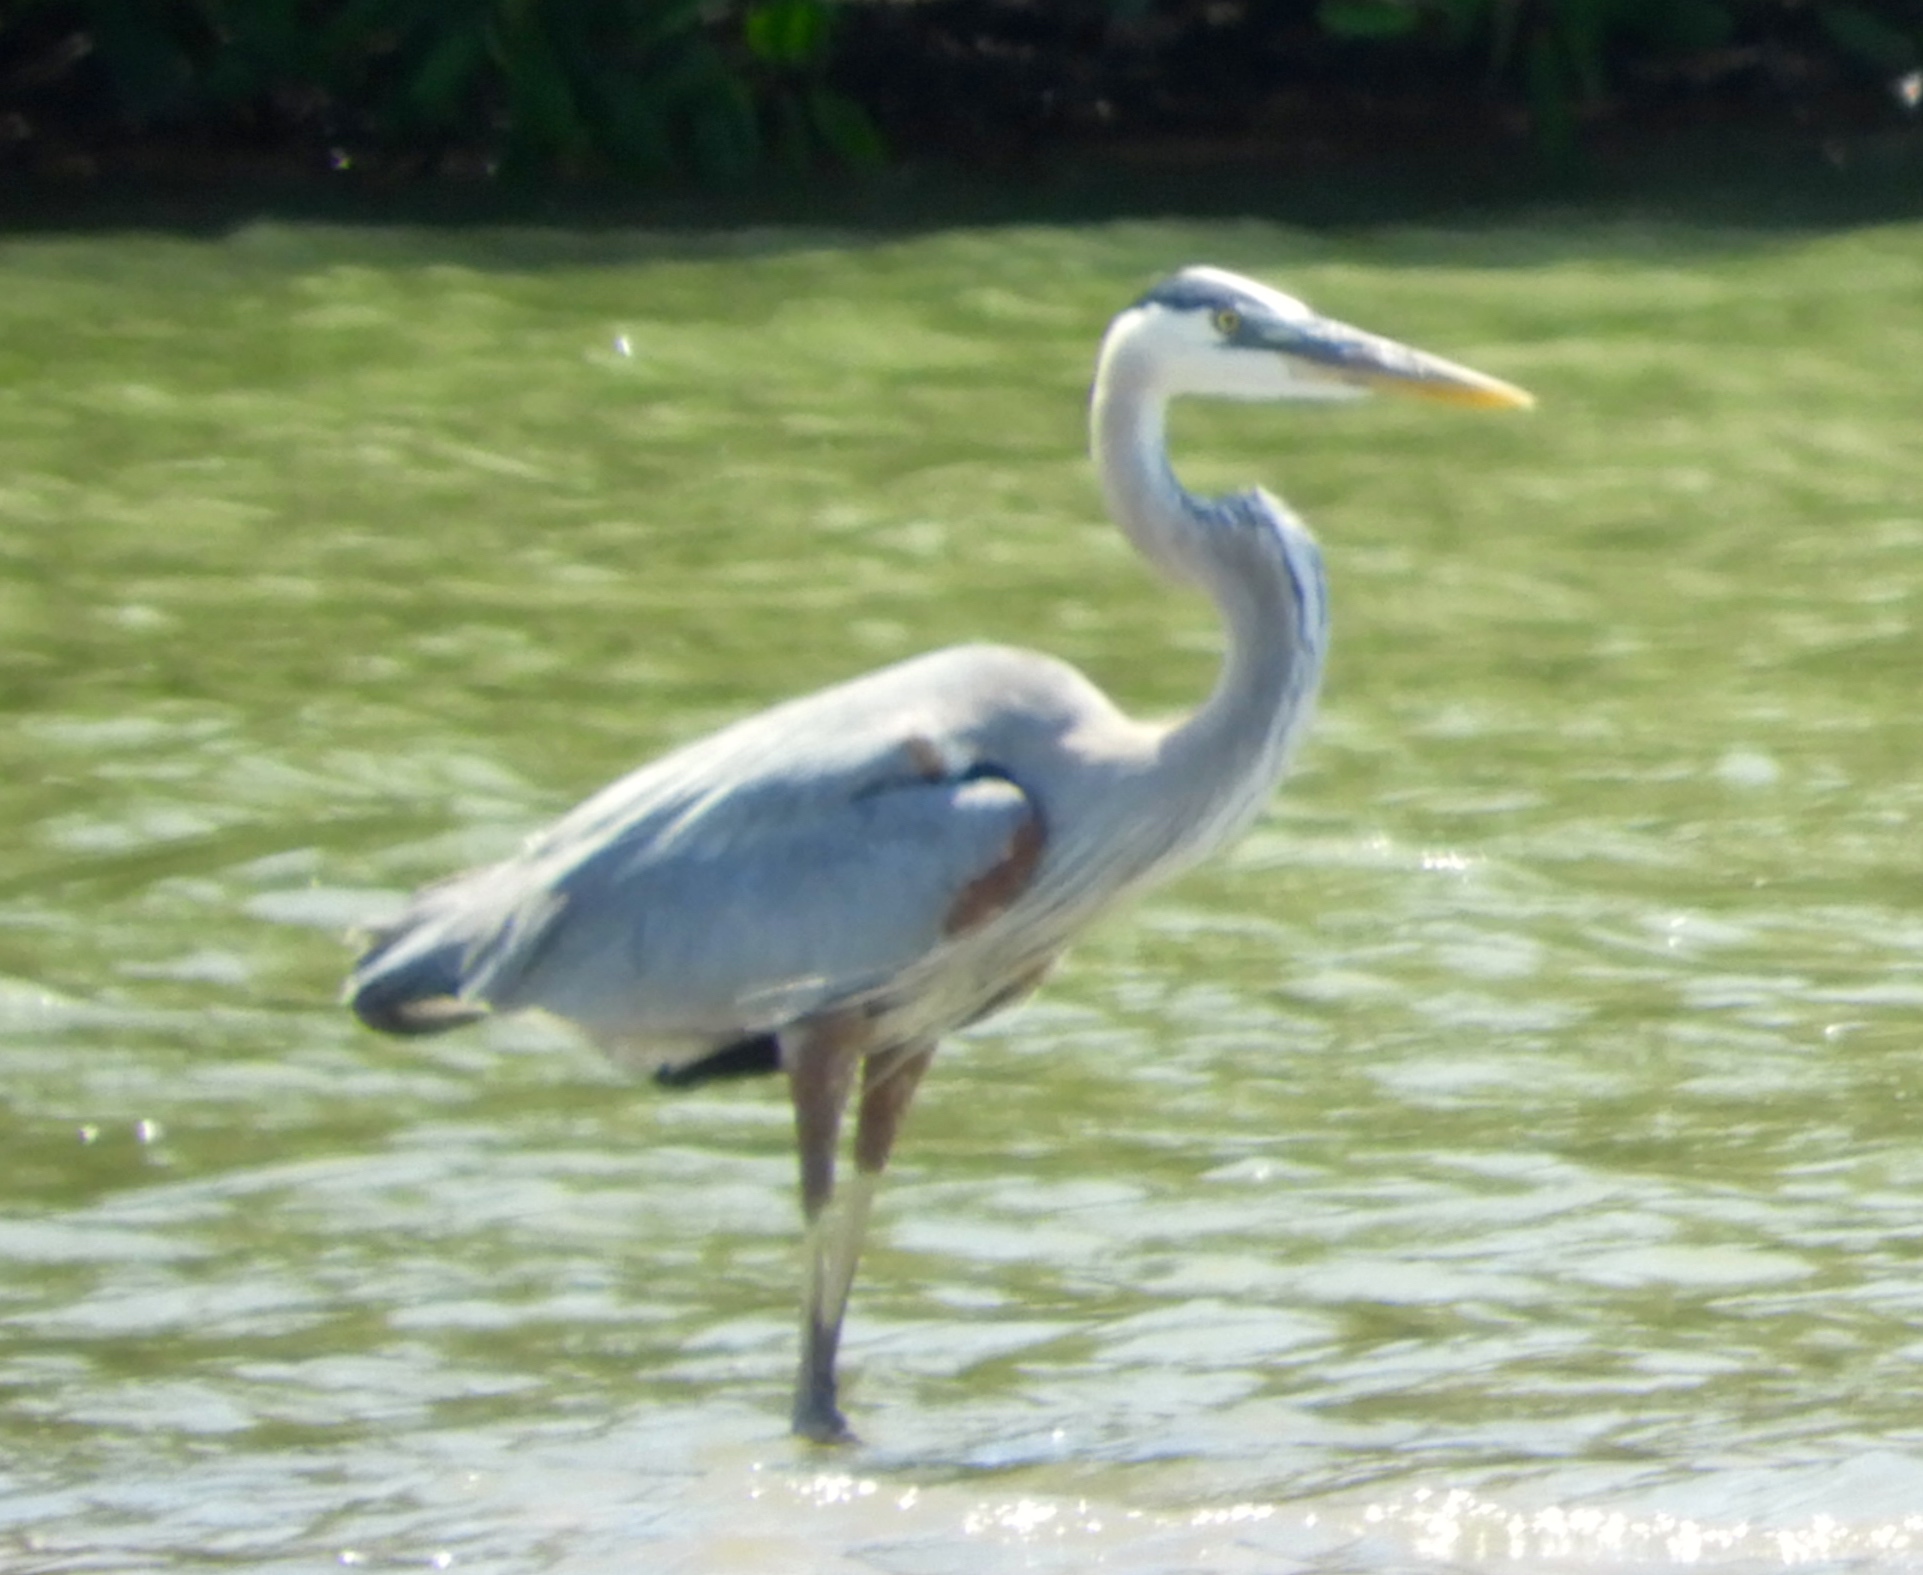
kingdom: Animalia
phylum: Chordata
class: Aves
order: Pelecaniformes
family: Ardeidae
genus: Ardea
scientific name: Ardea herodias
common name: Great blue heron
